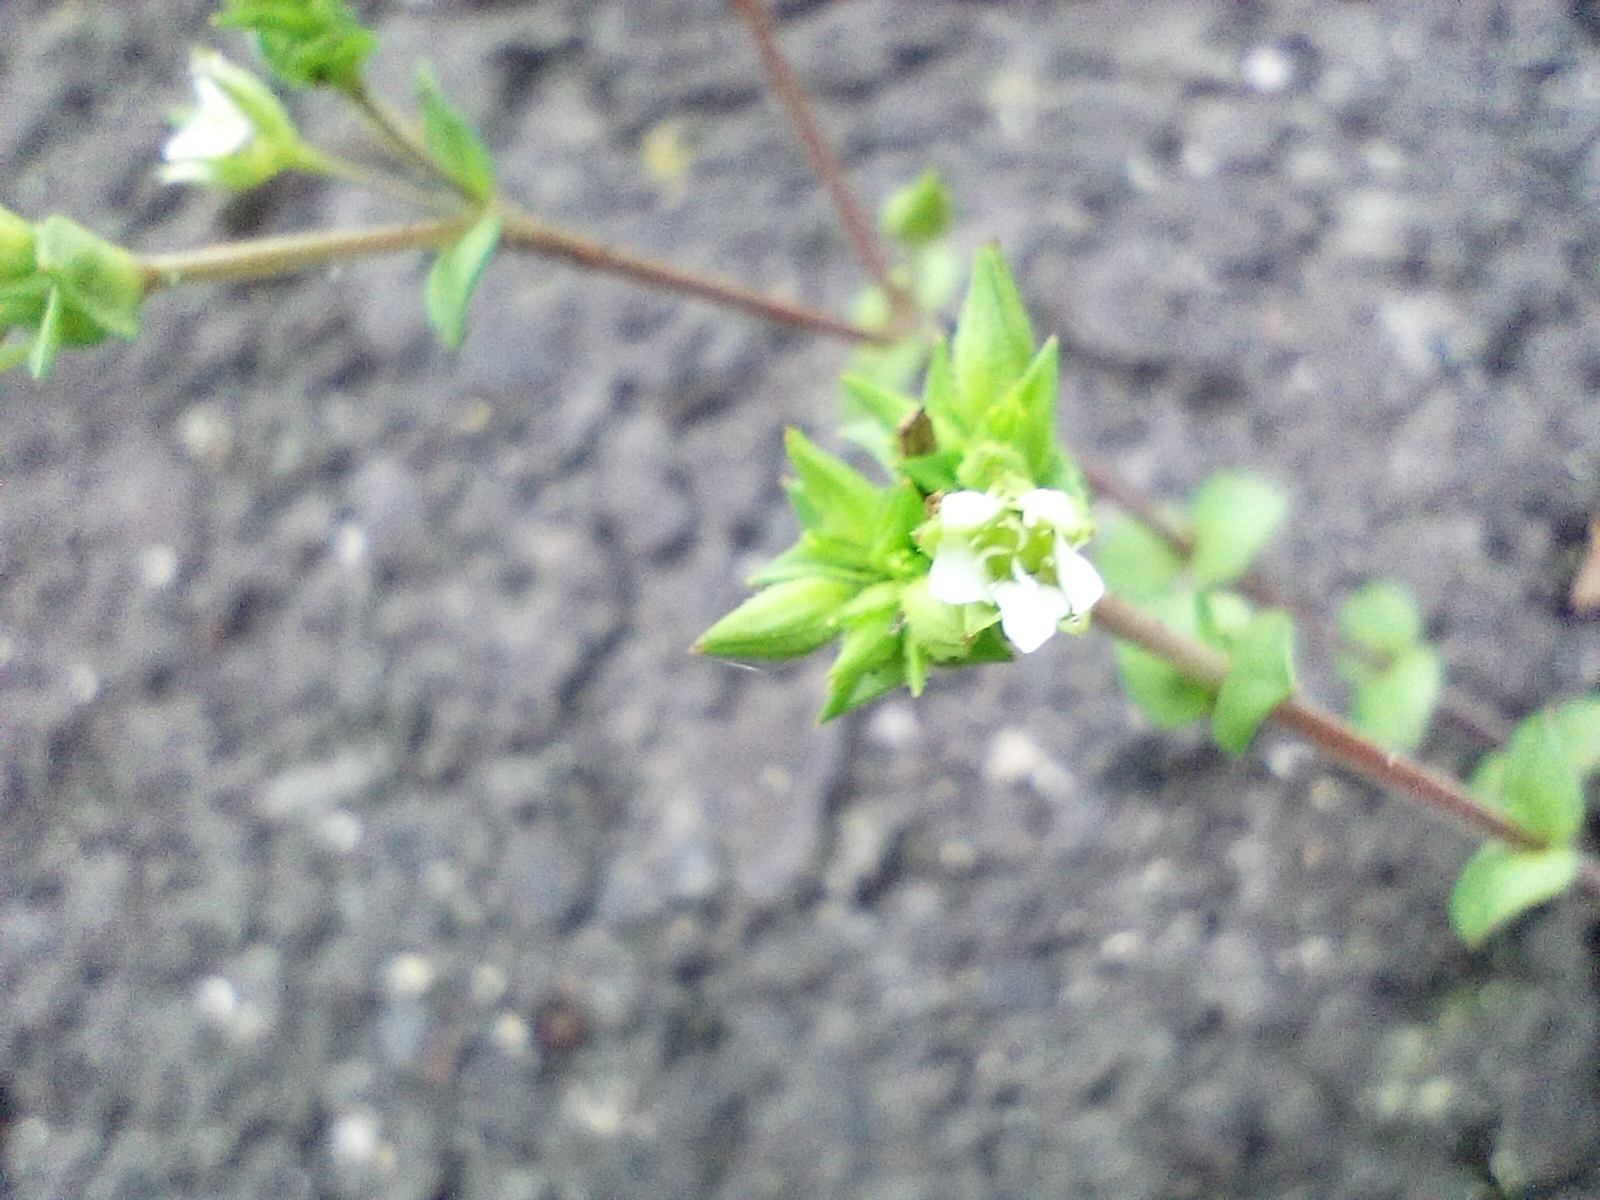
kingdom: Plantae
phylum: Tracheophyta
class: Magnoliopsida
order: Caryophyllales
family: Caryophyllaceae
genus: Arenaria
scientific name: Arenaria serpyllifolia
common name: Thyme-leaved sandwort
